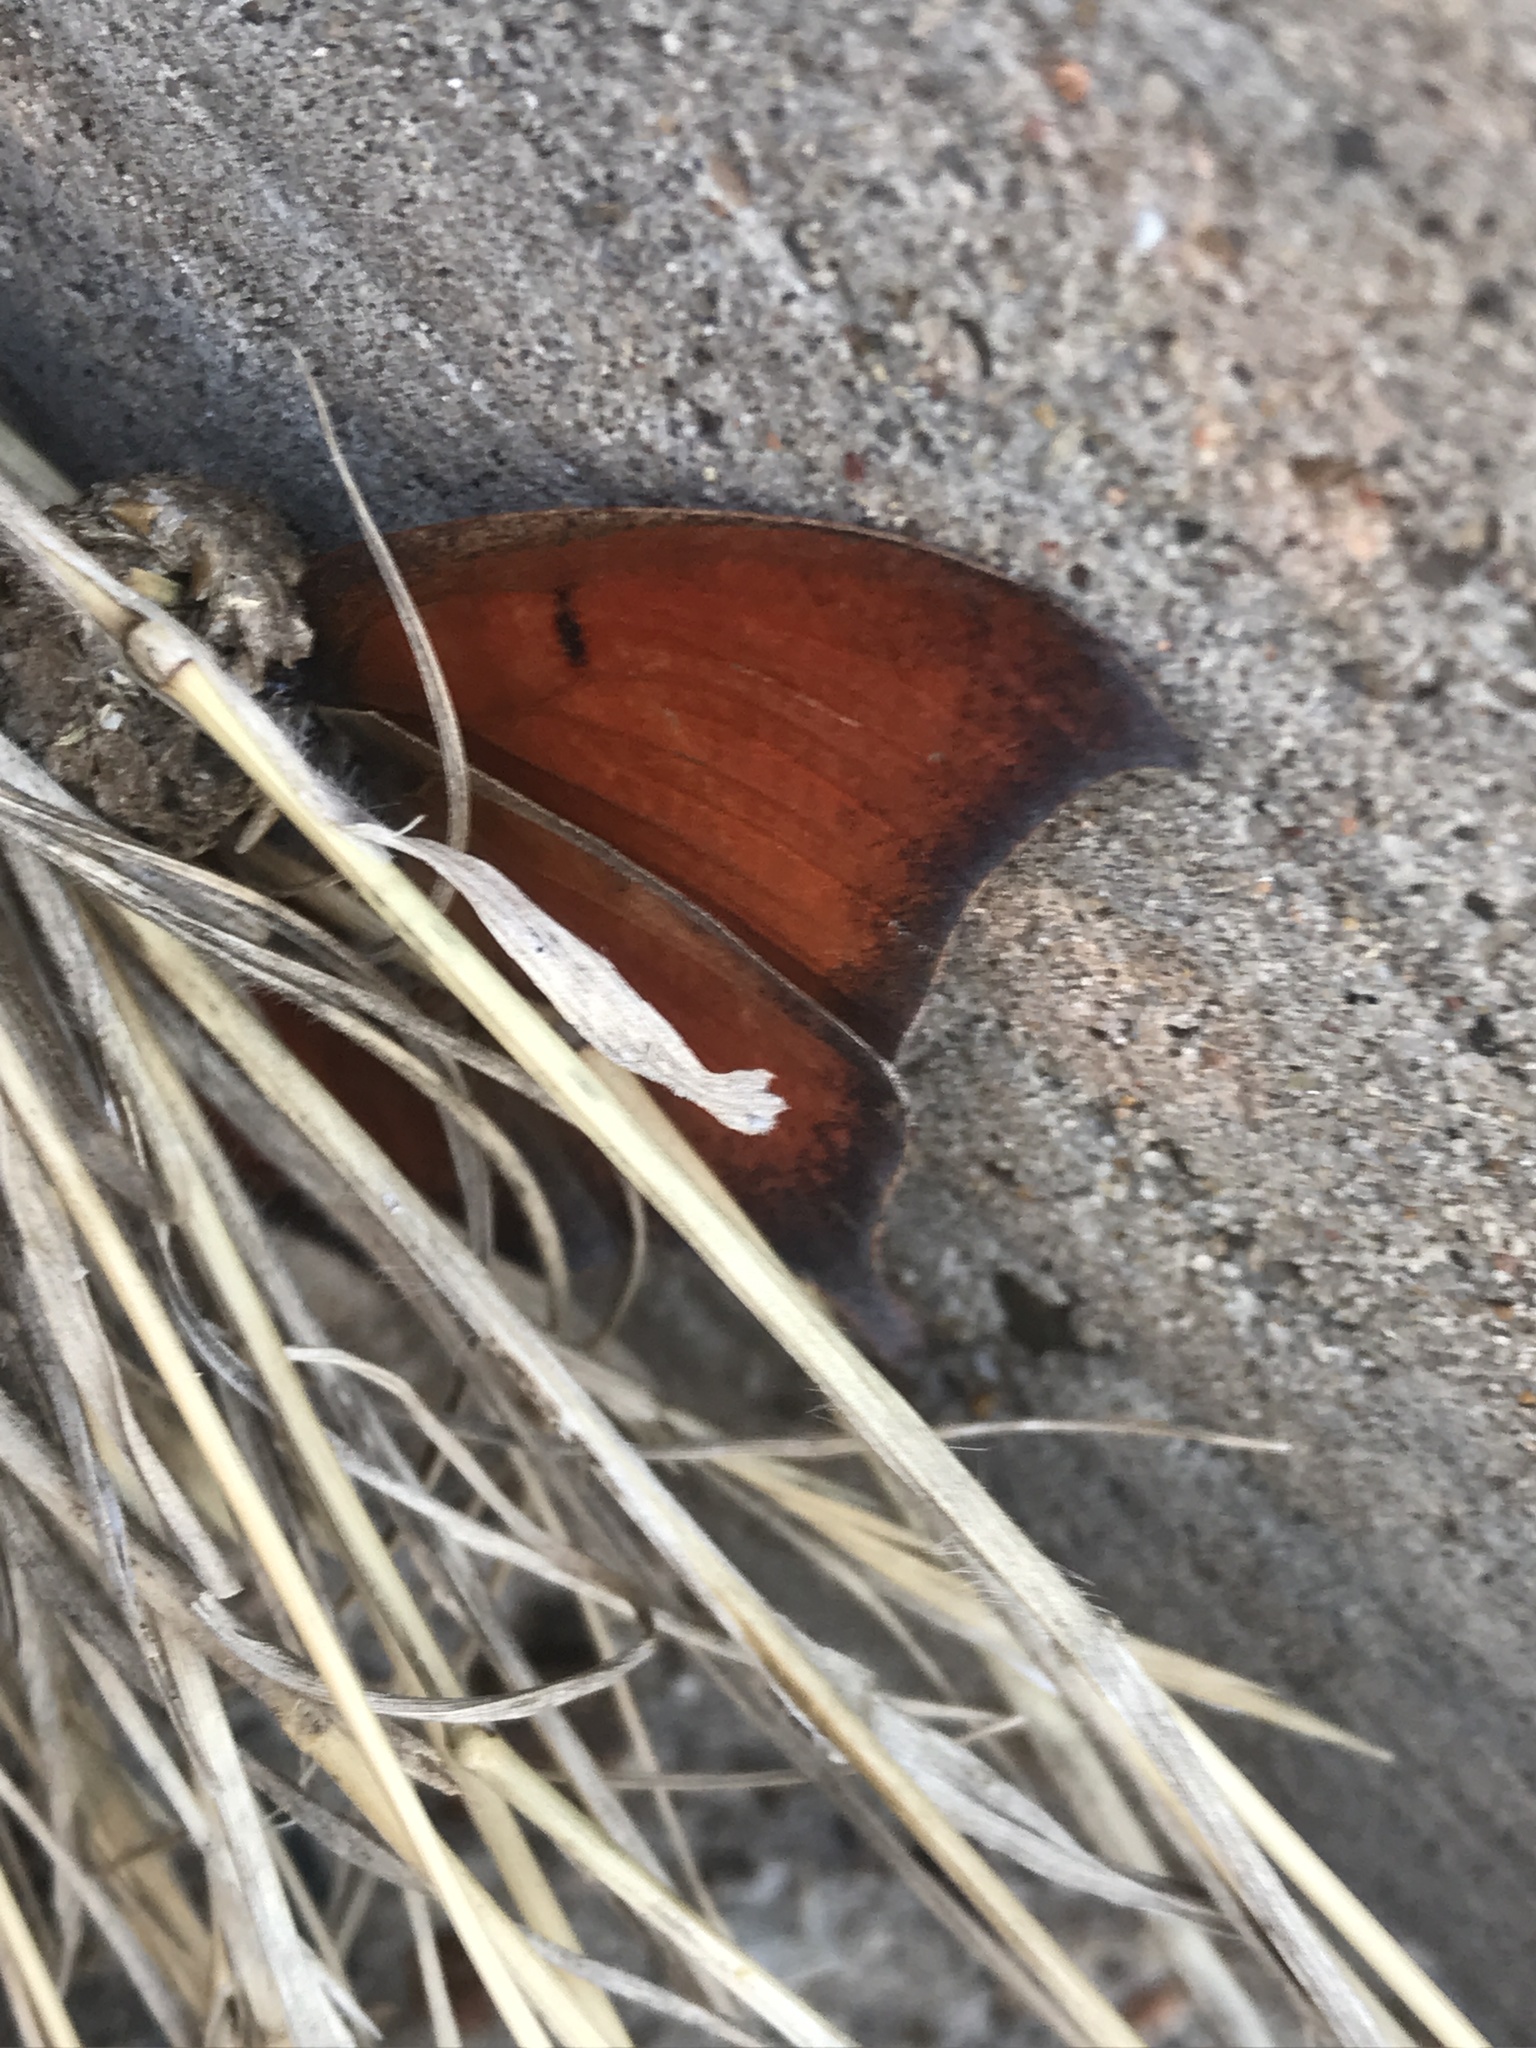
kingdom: Animalia
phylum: Arthropoda
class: Insecta
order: Lepidoptera
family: Nymphalidae
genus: Anaea
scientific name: Anaea andria
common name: Goatweed leafwing
